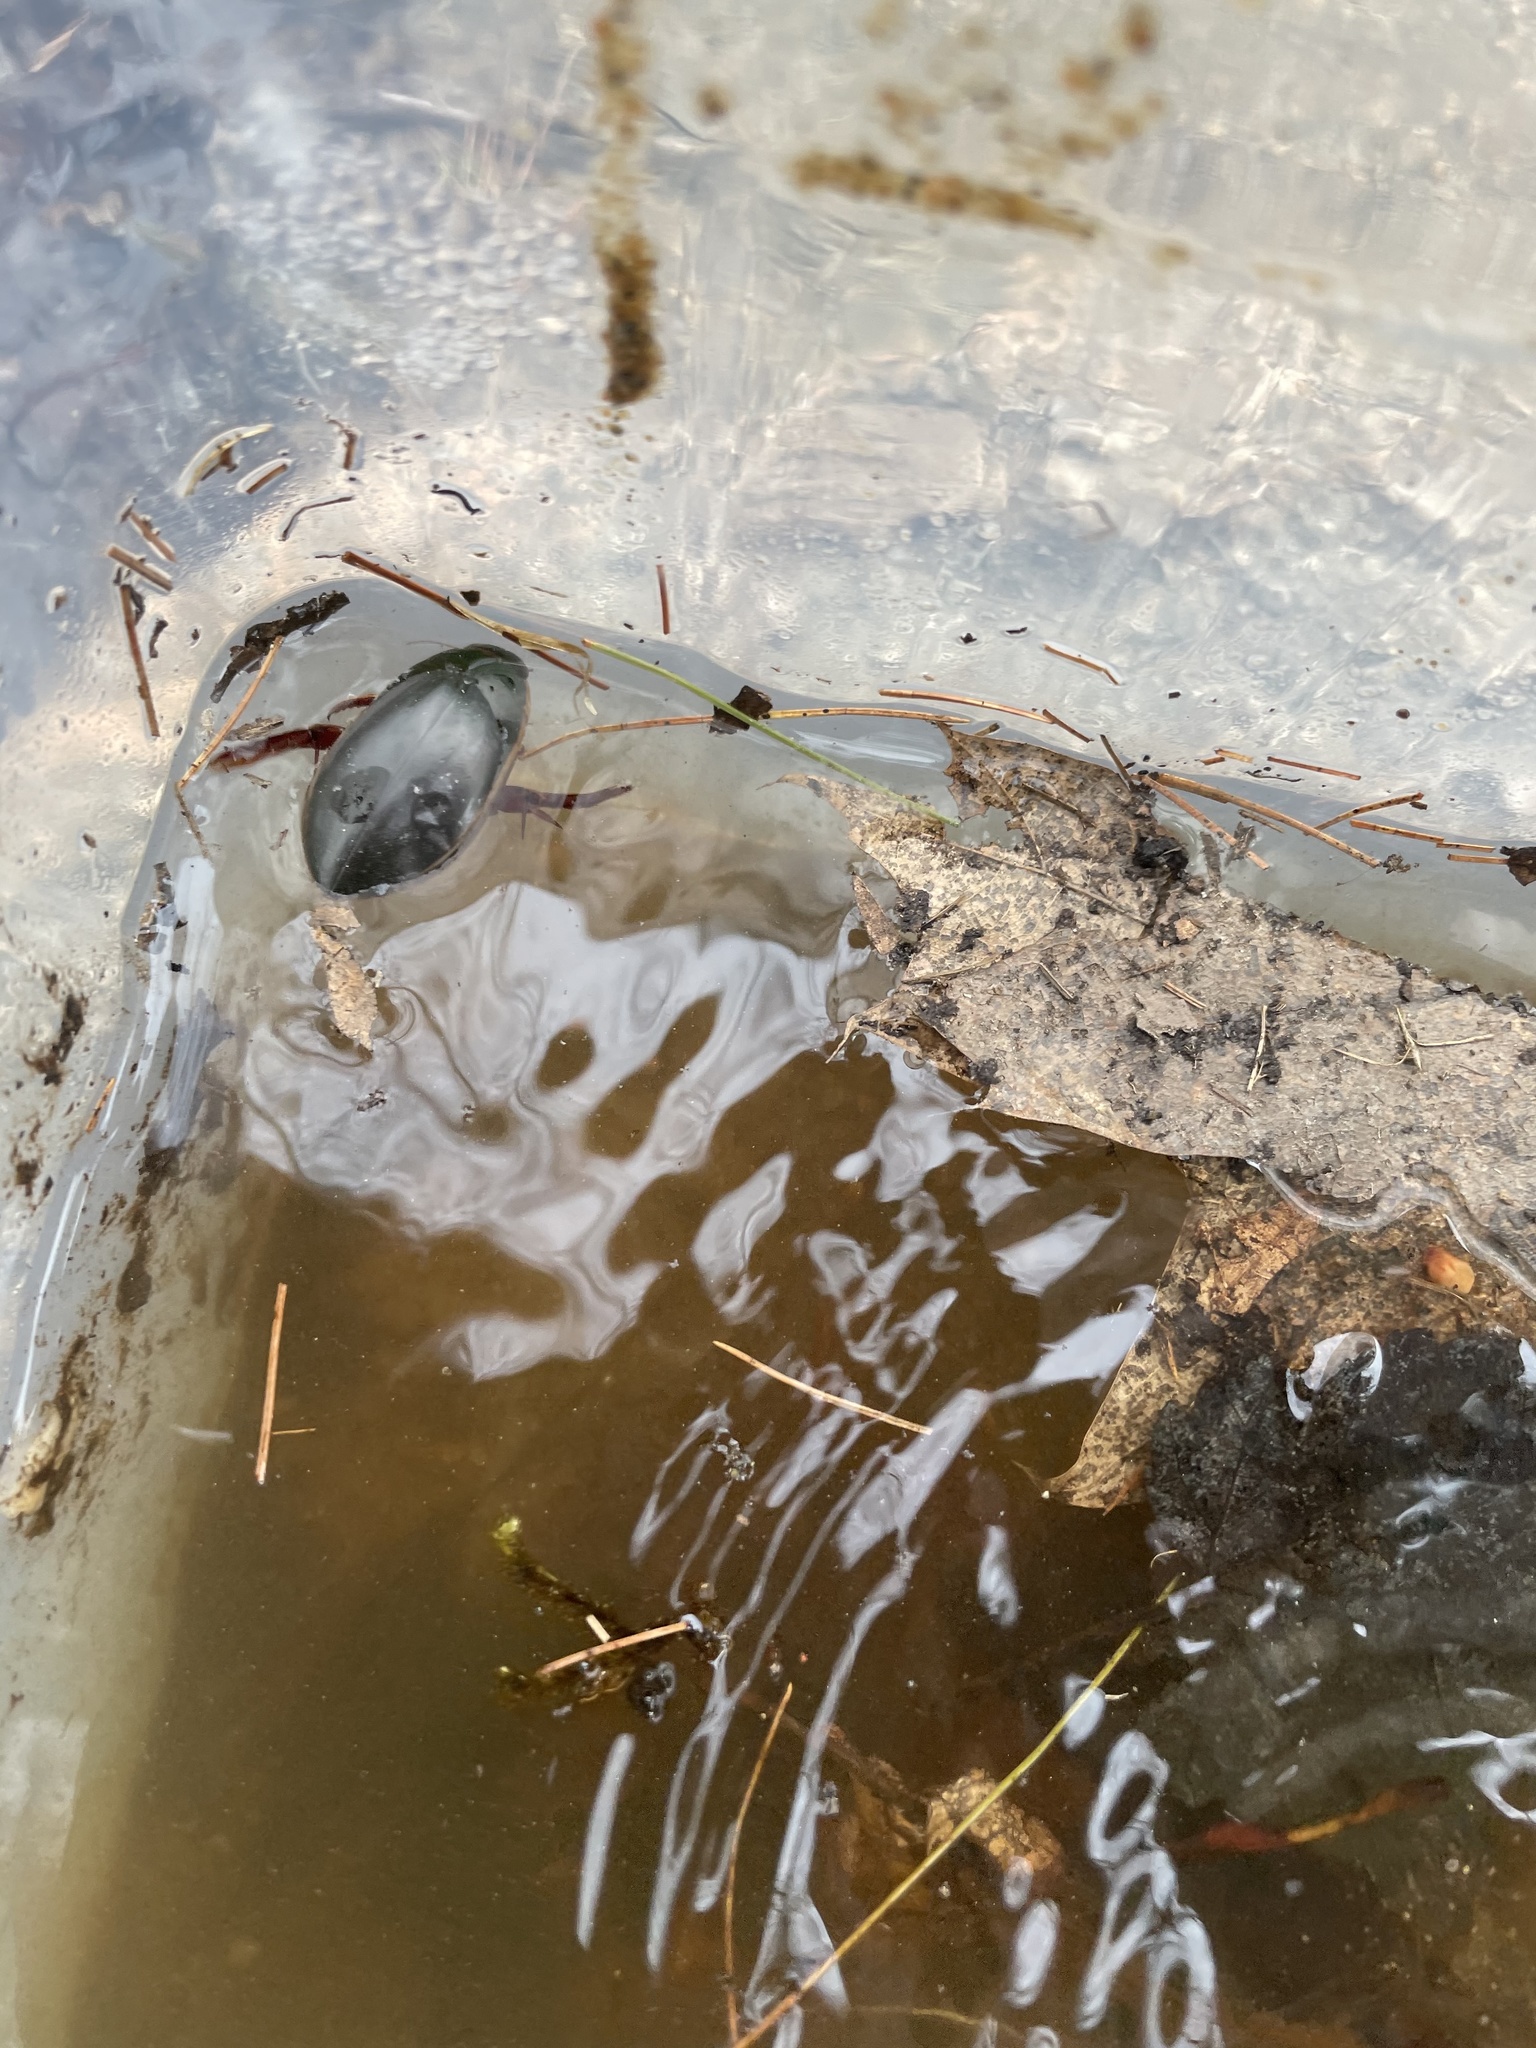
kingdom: Animalia
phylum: Arthropoda
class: Insecta
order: Coleoptera
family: Dytiscidae
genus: Cybister
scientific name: Cybister fimbriolatus
